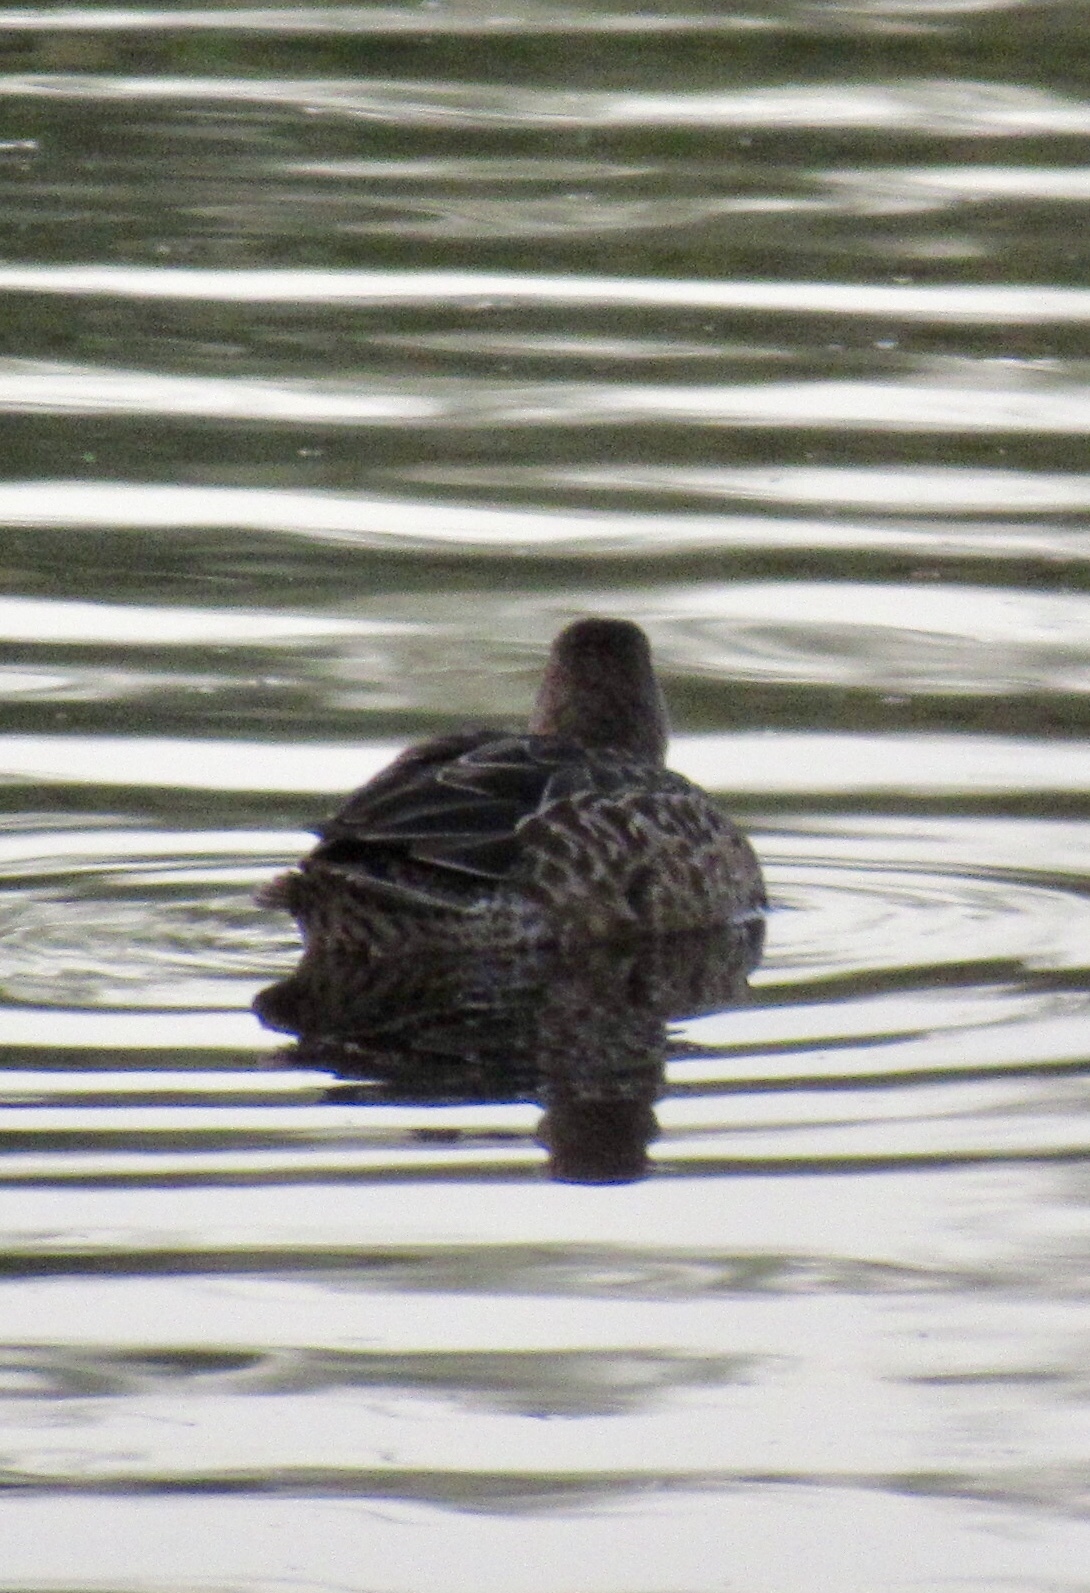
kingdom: Animalia
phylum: Chordata
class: Aves
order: Anseriformes
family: Anatidae
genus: Spatula
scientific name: Spatula cyanoptera
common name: Cinnamon teal
